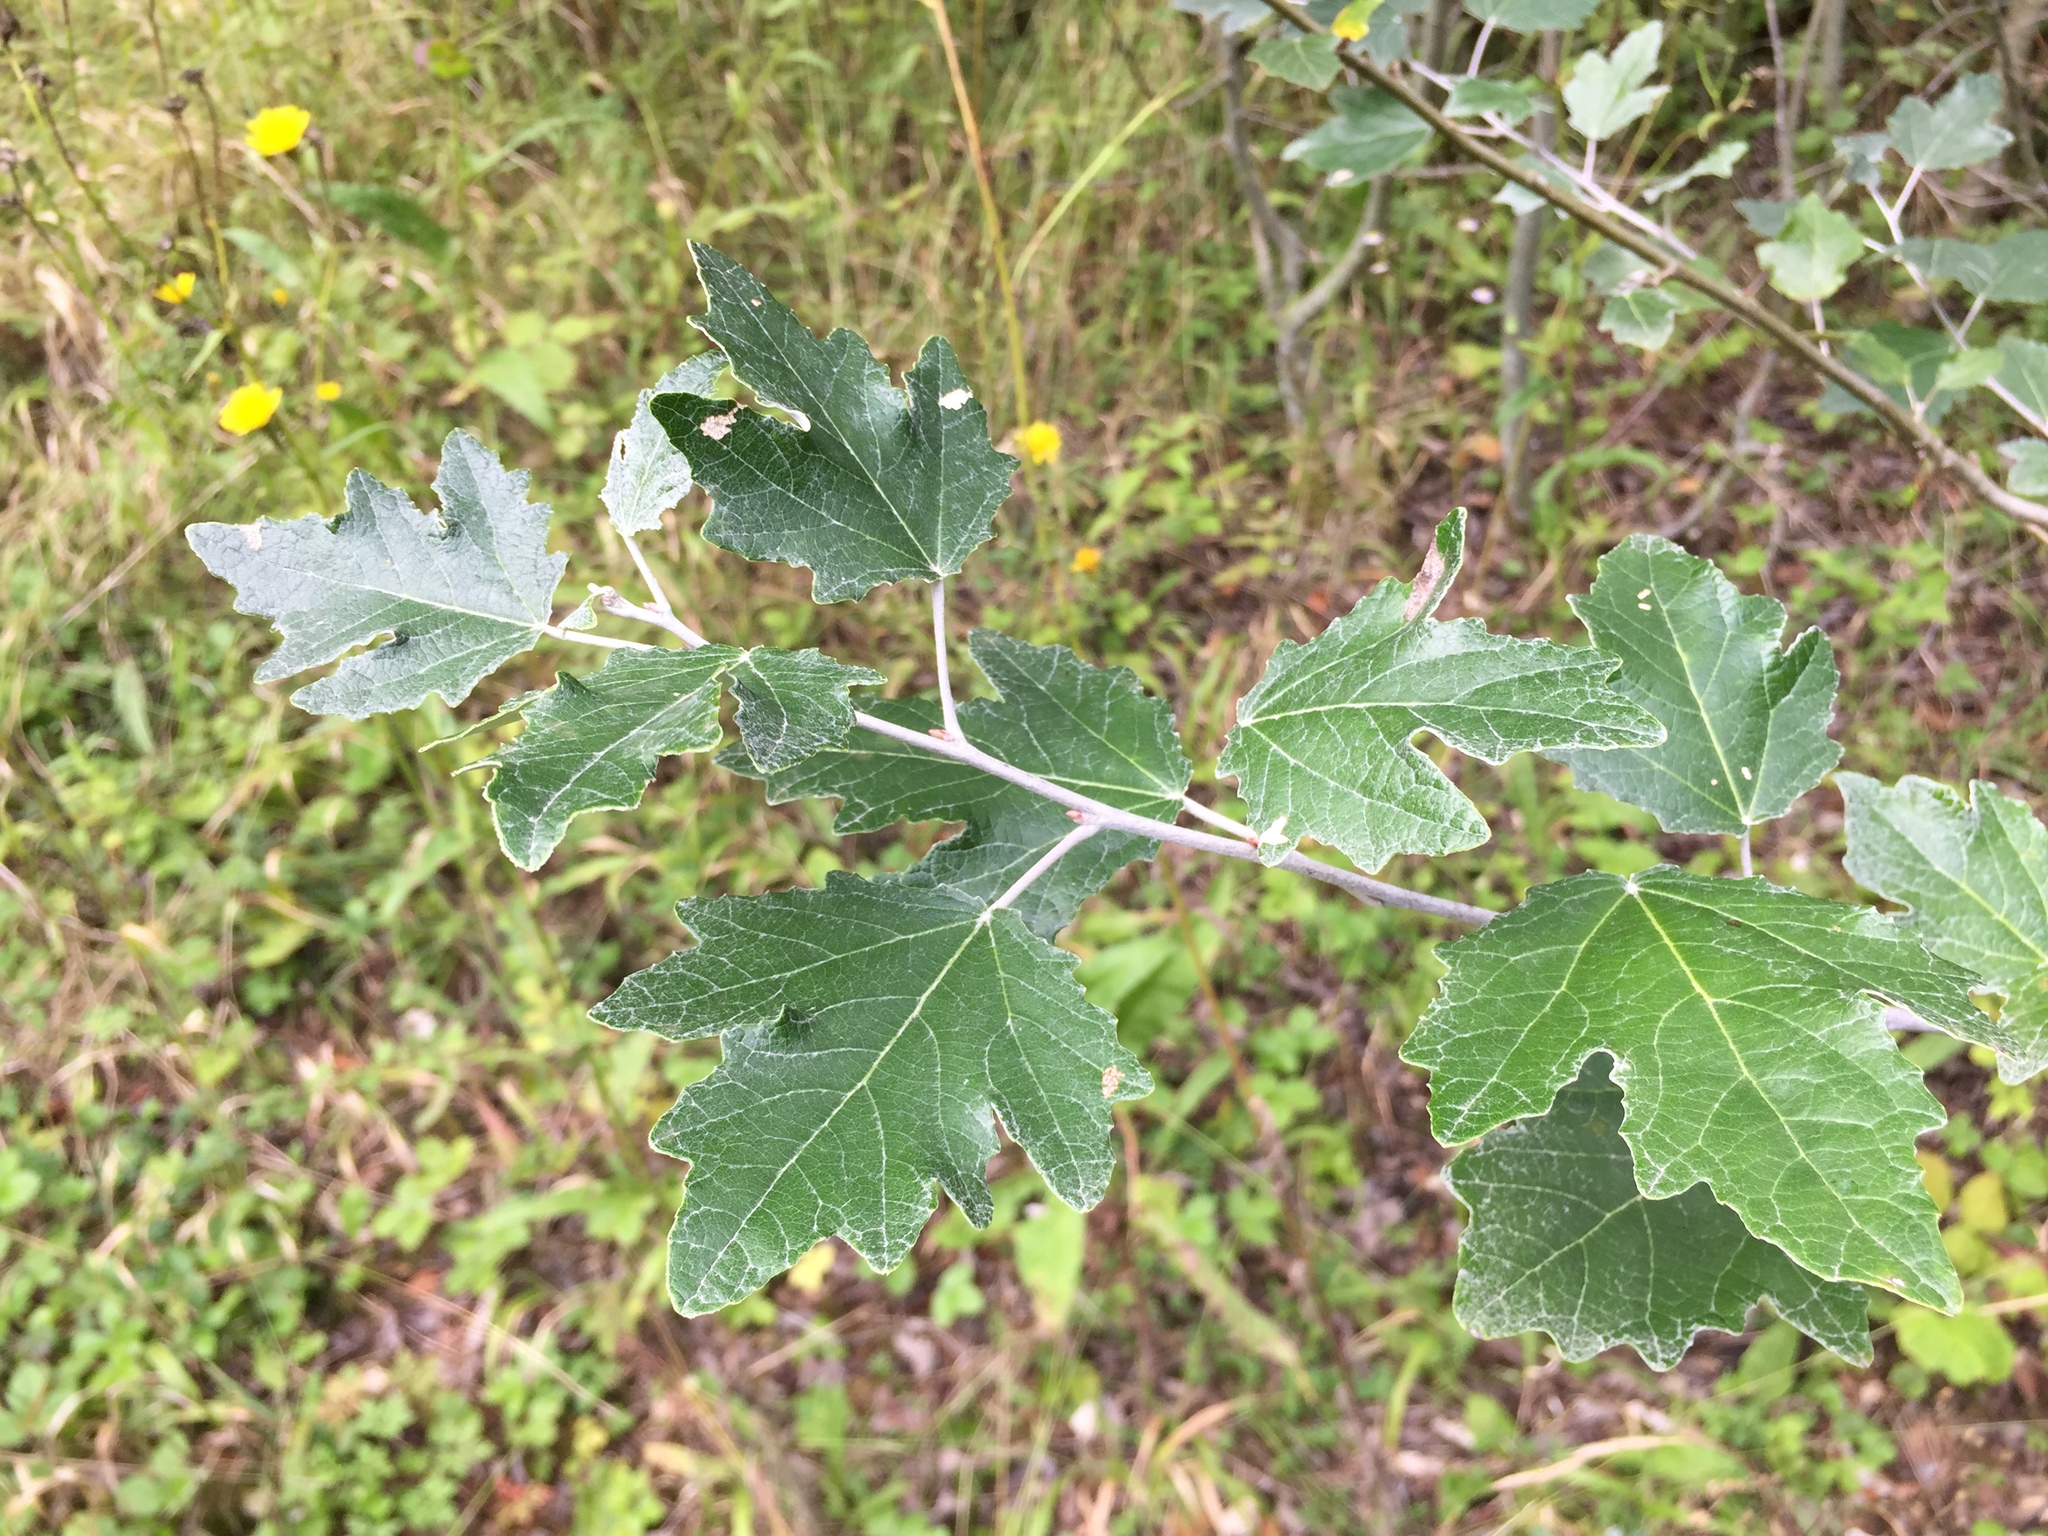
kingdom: Plantae
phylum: Tracheophyta
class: Magnoliopsida
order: Malpighiales
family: Salicaceae
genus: Populus
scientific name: Populus alba
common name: White poplar
